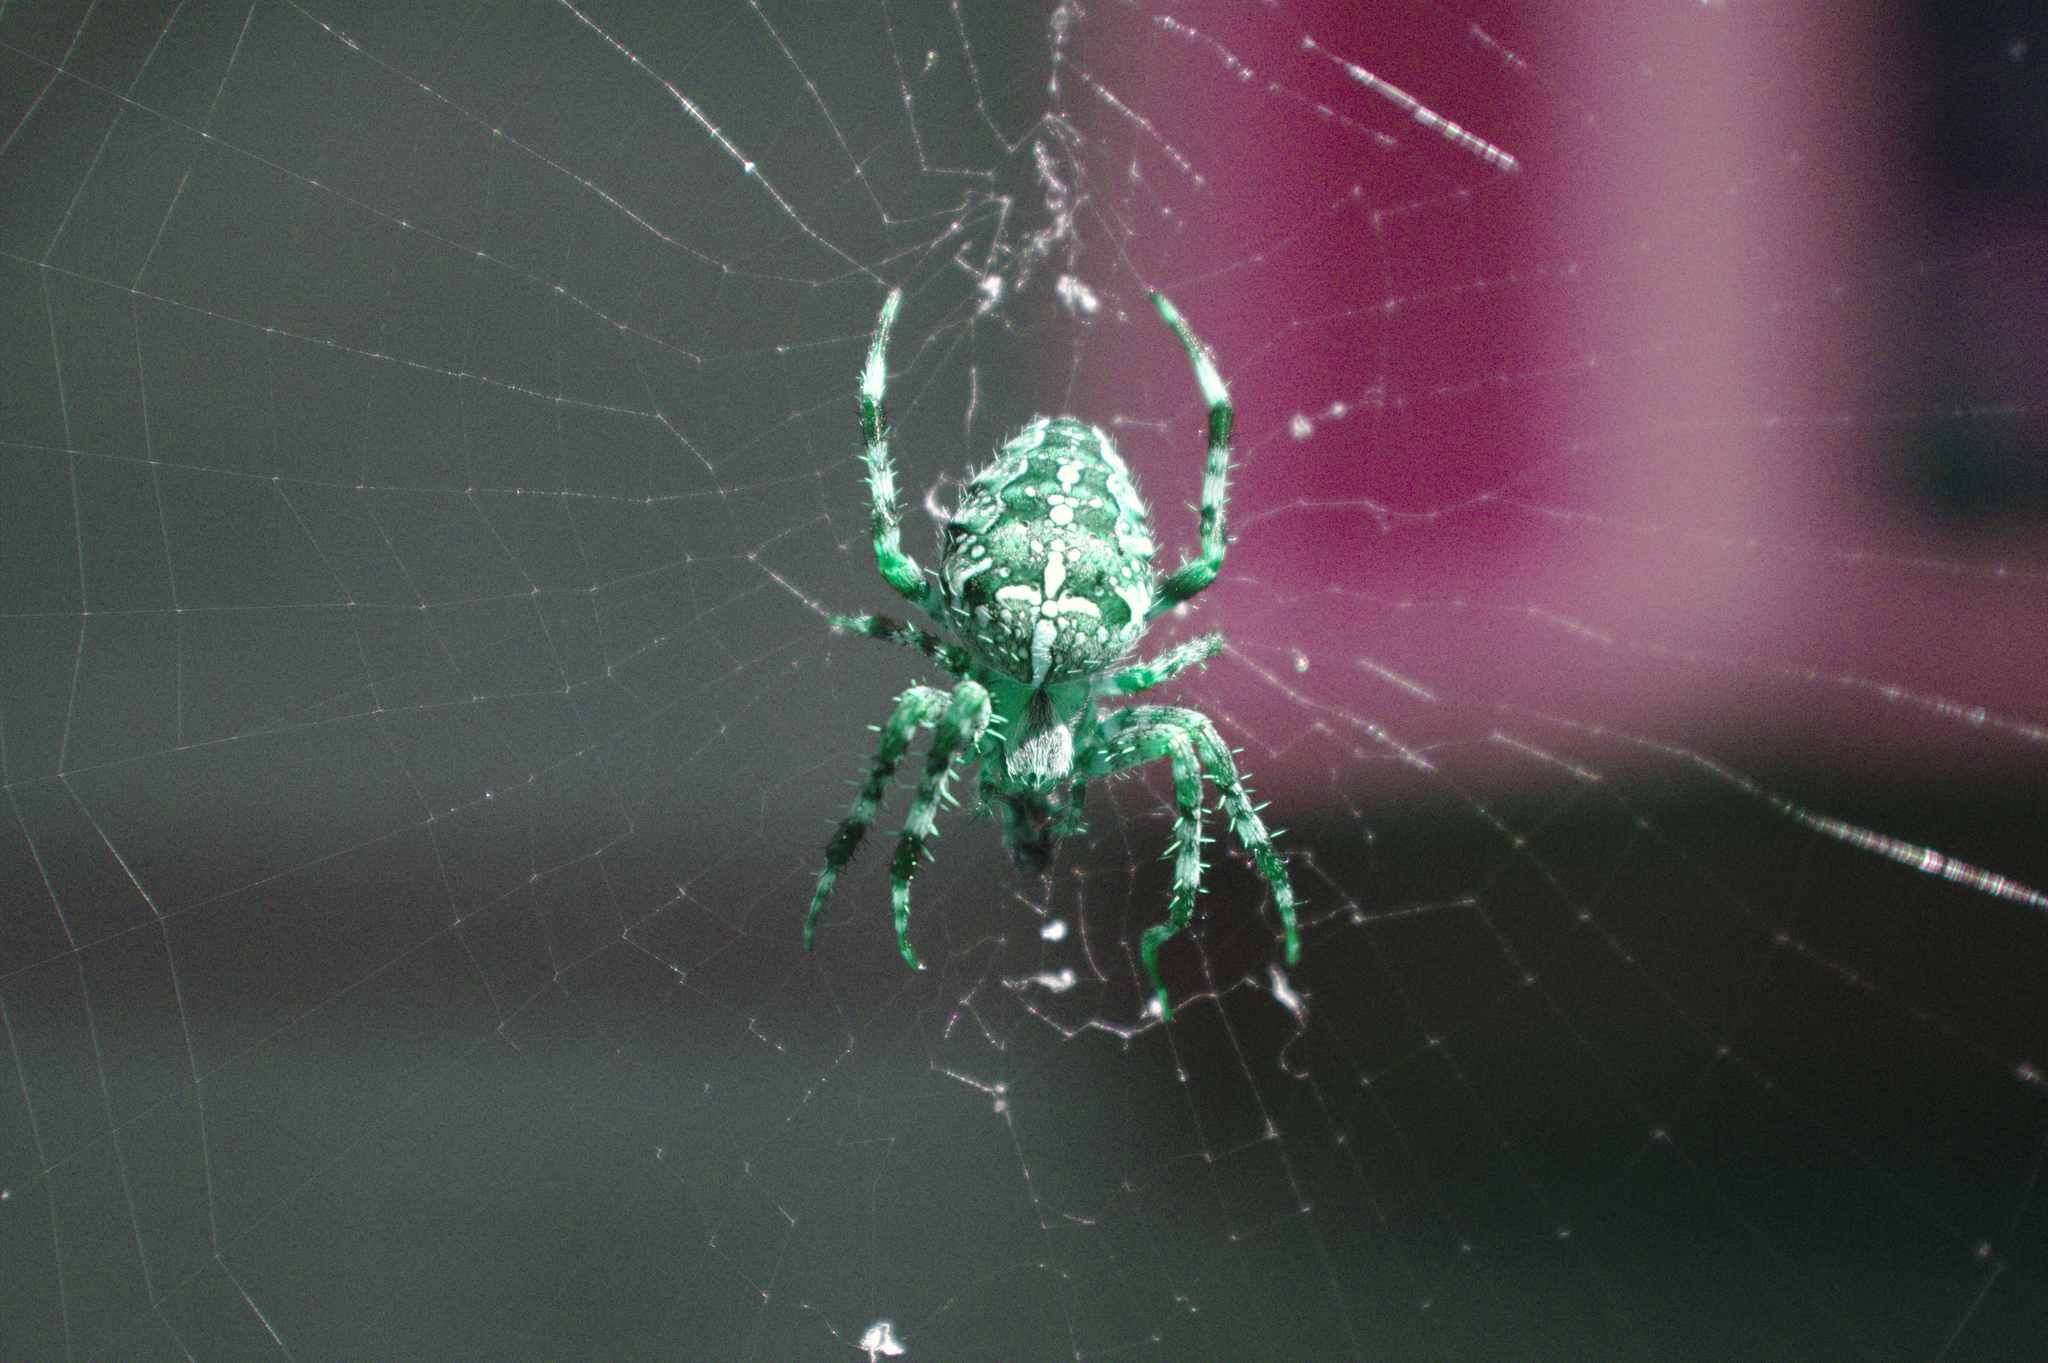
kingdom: Animalia
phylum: Arthropoda
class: Arachnida
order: Araneae
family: Araneidae
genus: Araneus
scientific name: Araneus diadematus
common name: Cross orbweaver
